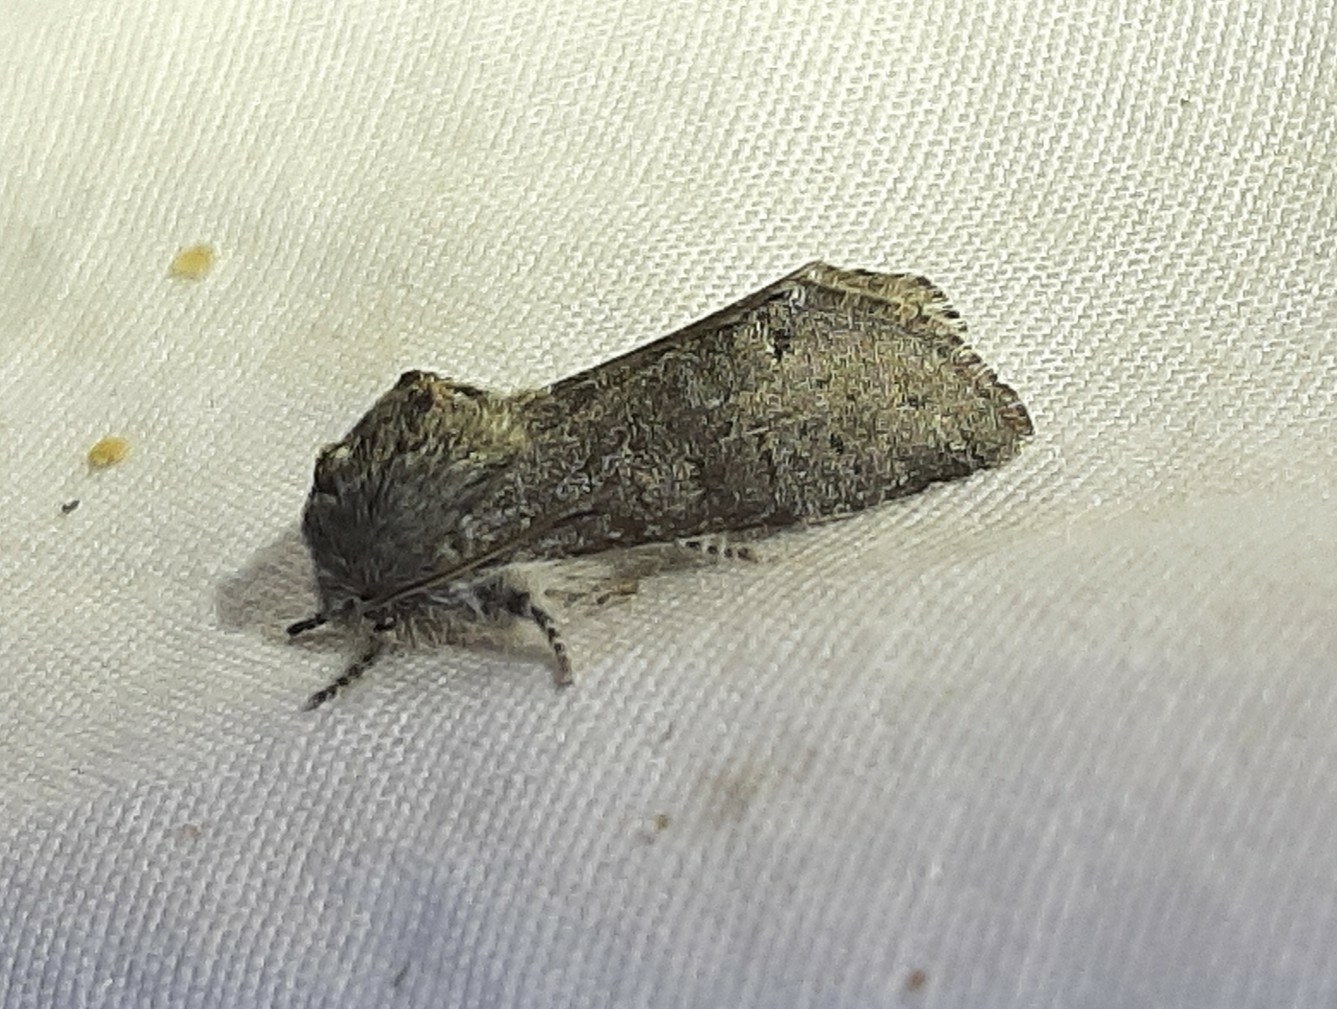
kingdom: Animalia
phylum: Arthropoda
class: Insecta
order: Lepidoptera
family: Noctuidae
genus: Psaphida
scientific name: Psaphida rolandi
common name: Roland's sallow
